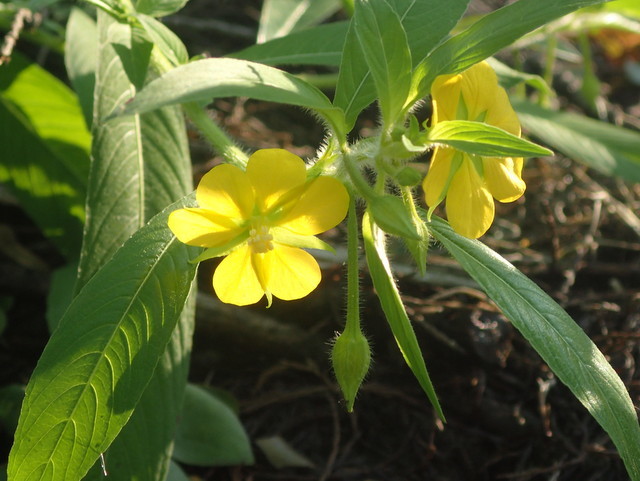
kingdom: Plantae
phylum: Tracheophyta
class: Magnoliopsida
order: Myrtales
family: Onagraceae
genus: Ludwigia
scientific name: Ludwigia leptocarpa
